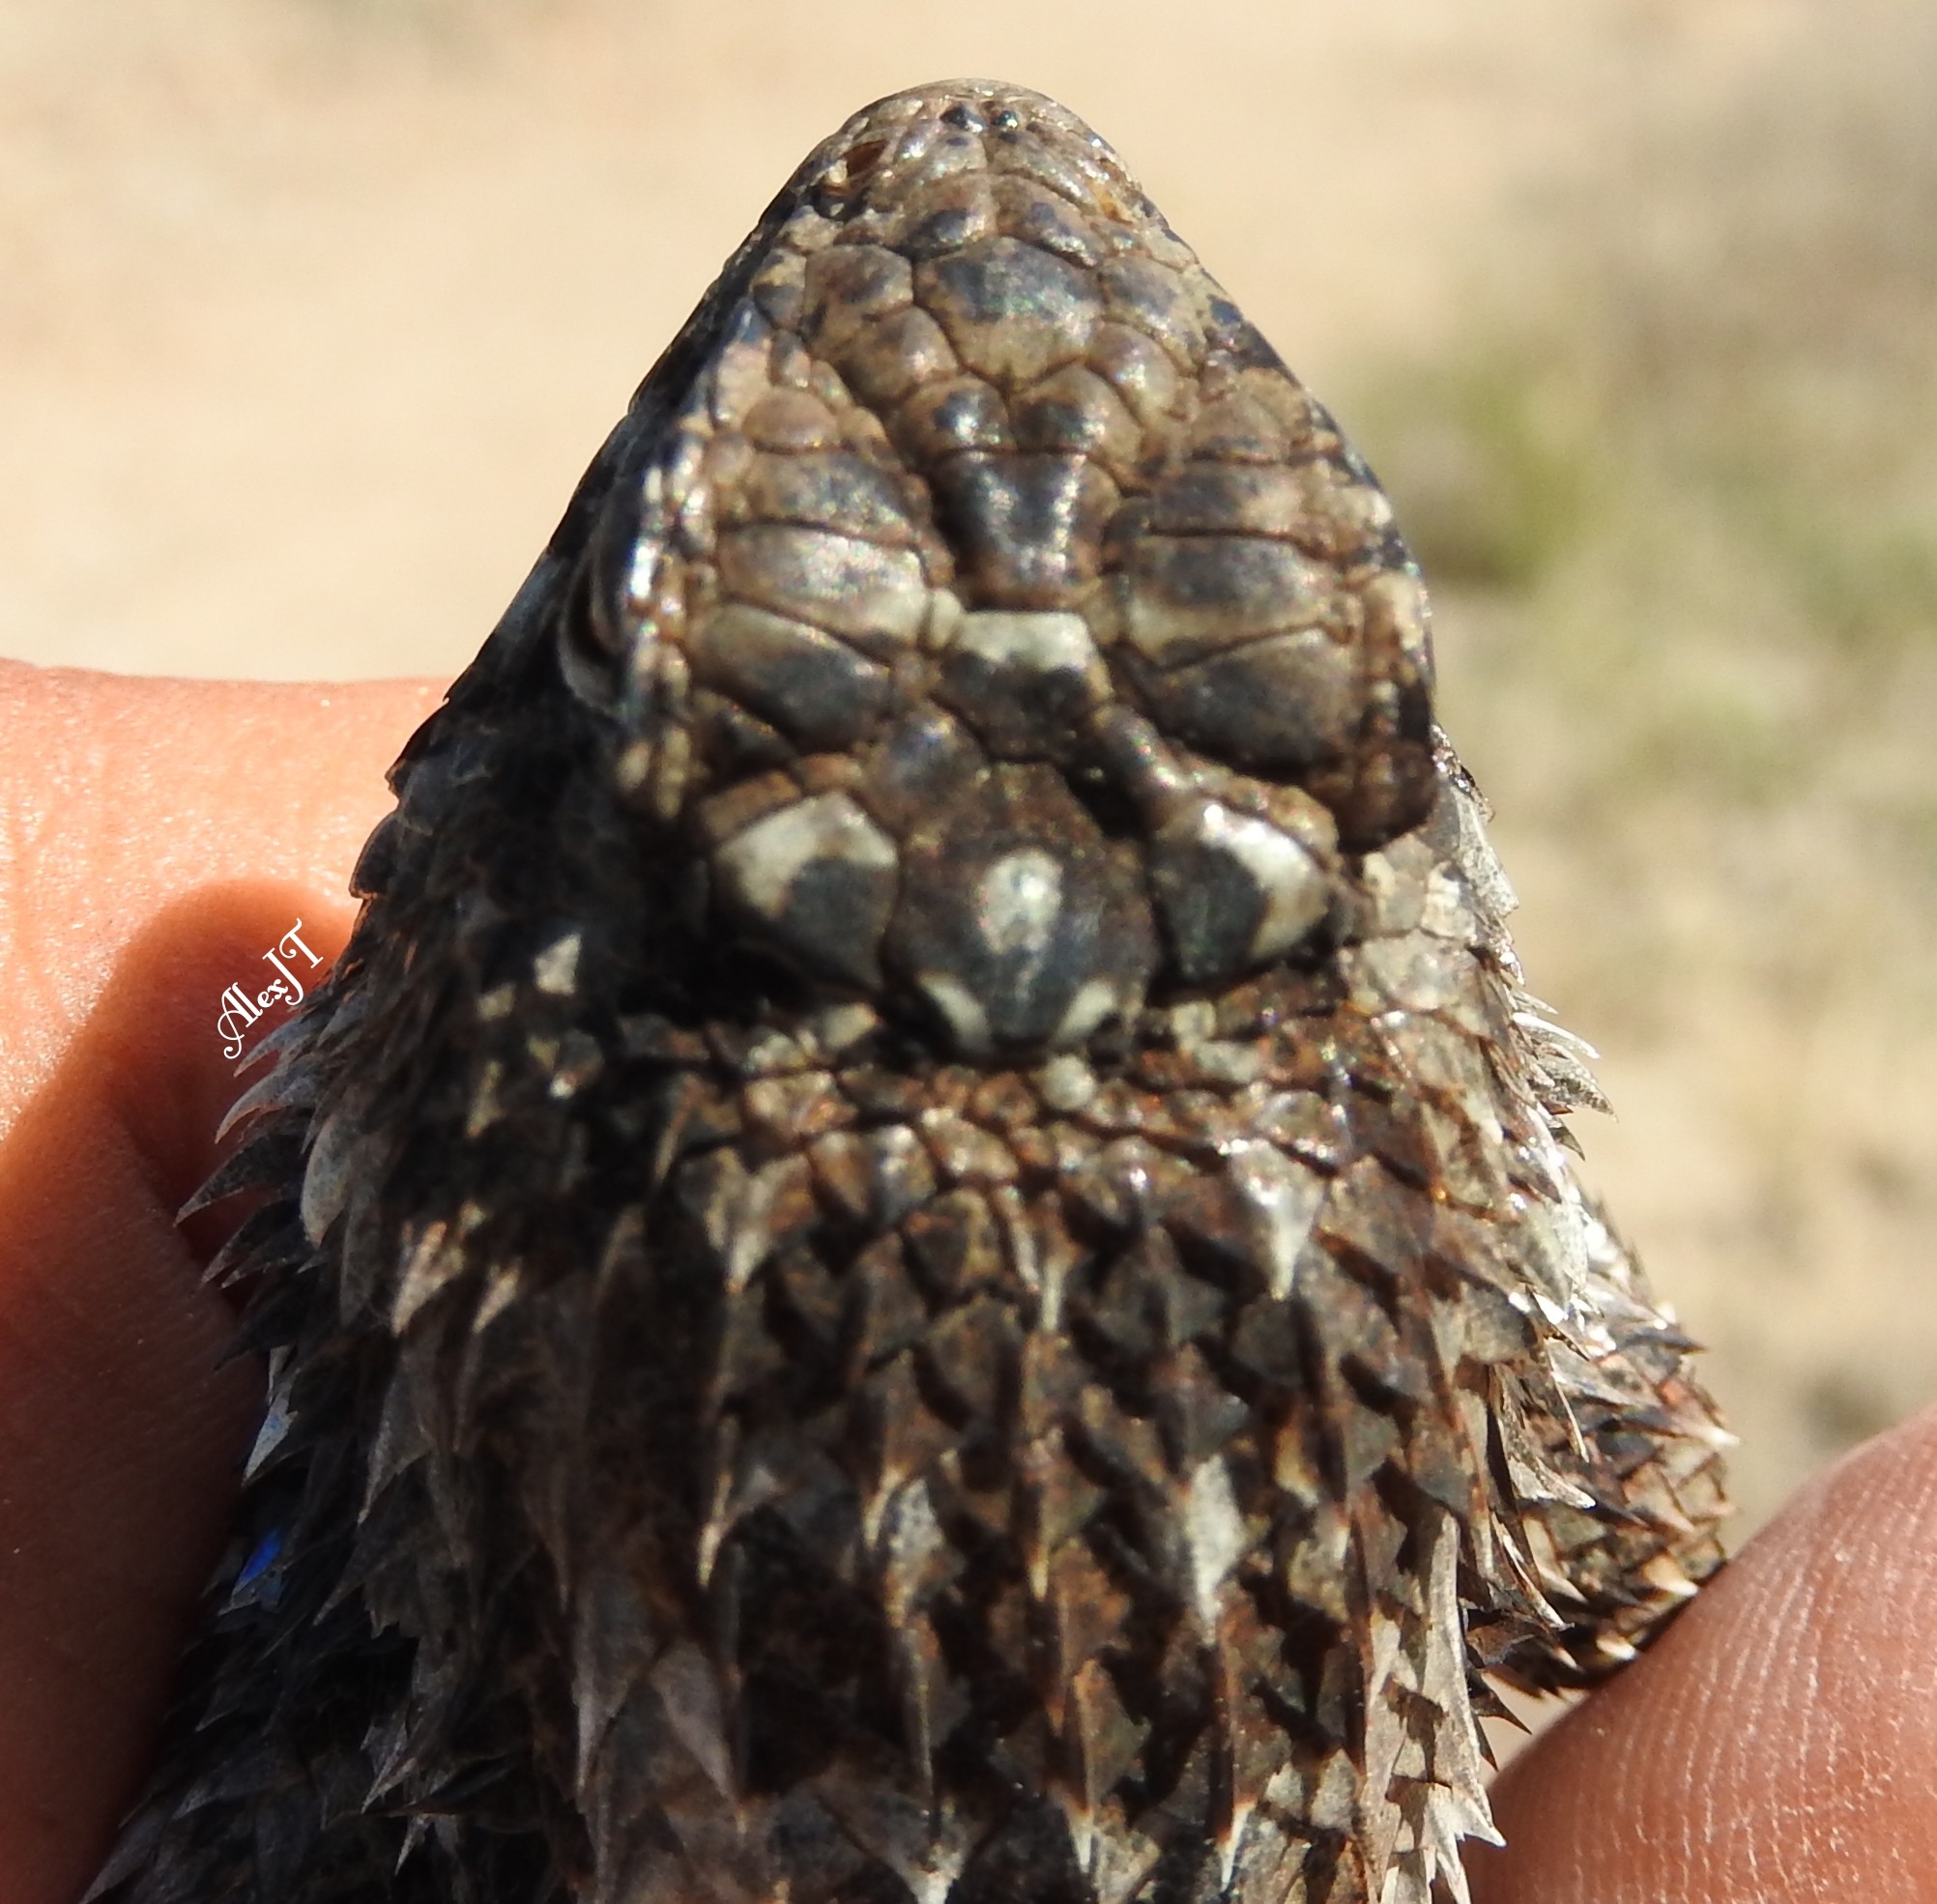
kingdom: Animalia
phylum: Chordata
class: Squamata
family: Phrynosomatidae
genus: Sceloporus
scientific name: Sceloporus spinosus
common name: Blue-spotted spiny lizard [caeruleopunctatus]
